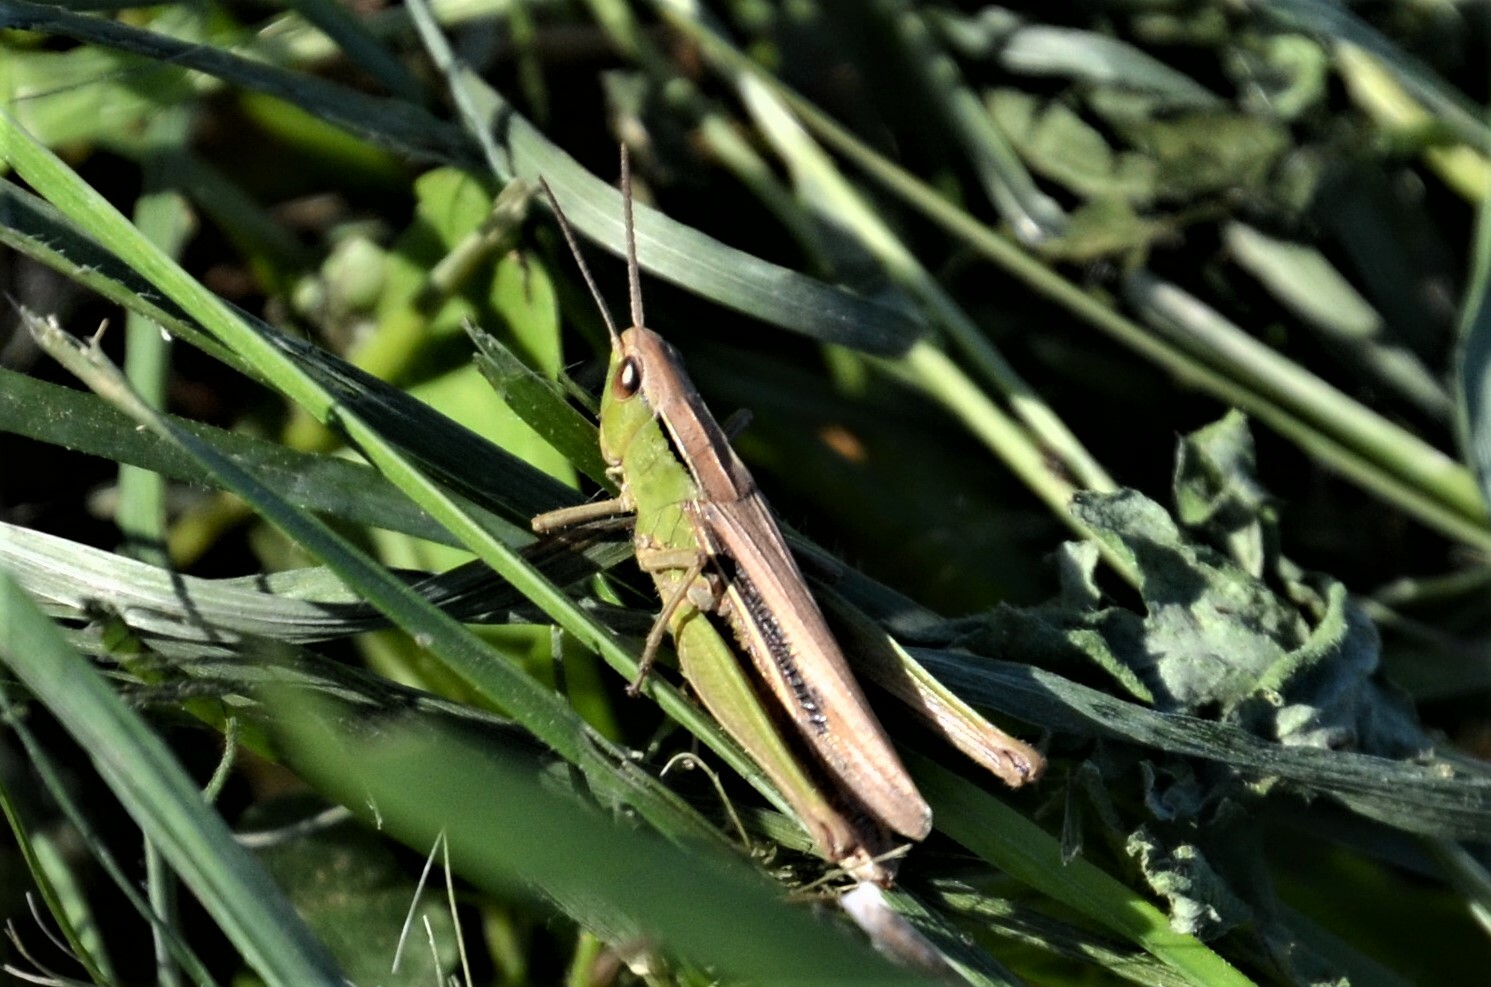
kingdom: Animalia
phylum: Arthropoda
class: Insecta
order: Orthoptera
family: Acrididae
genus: Chorthippus
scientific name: Chorthippus albomarginatus
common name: Lesser marsh grasshopper
